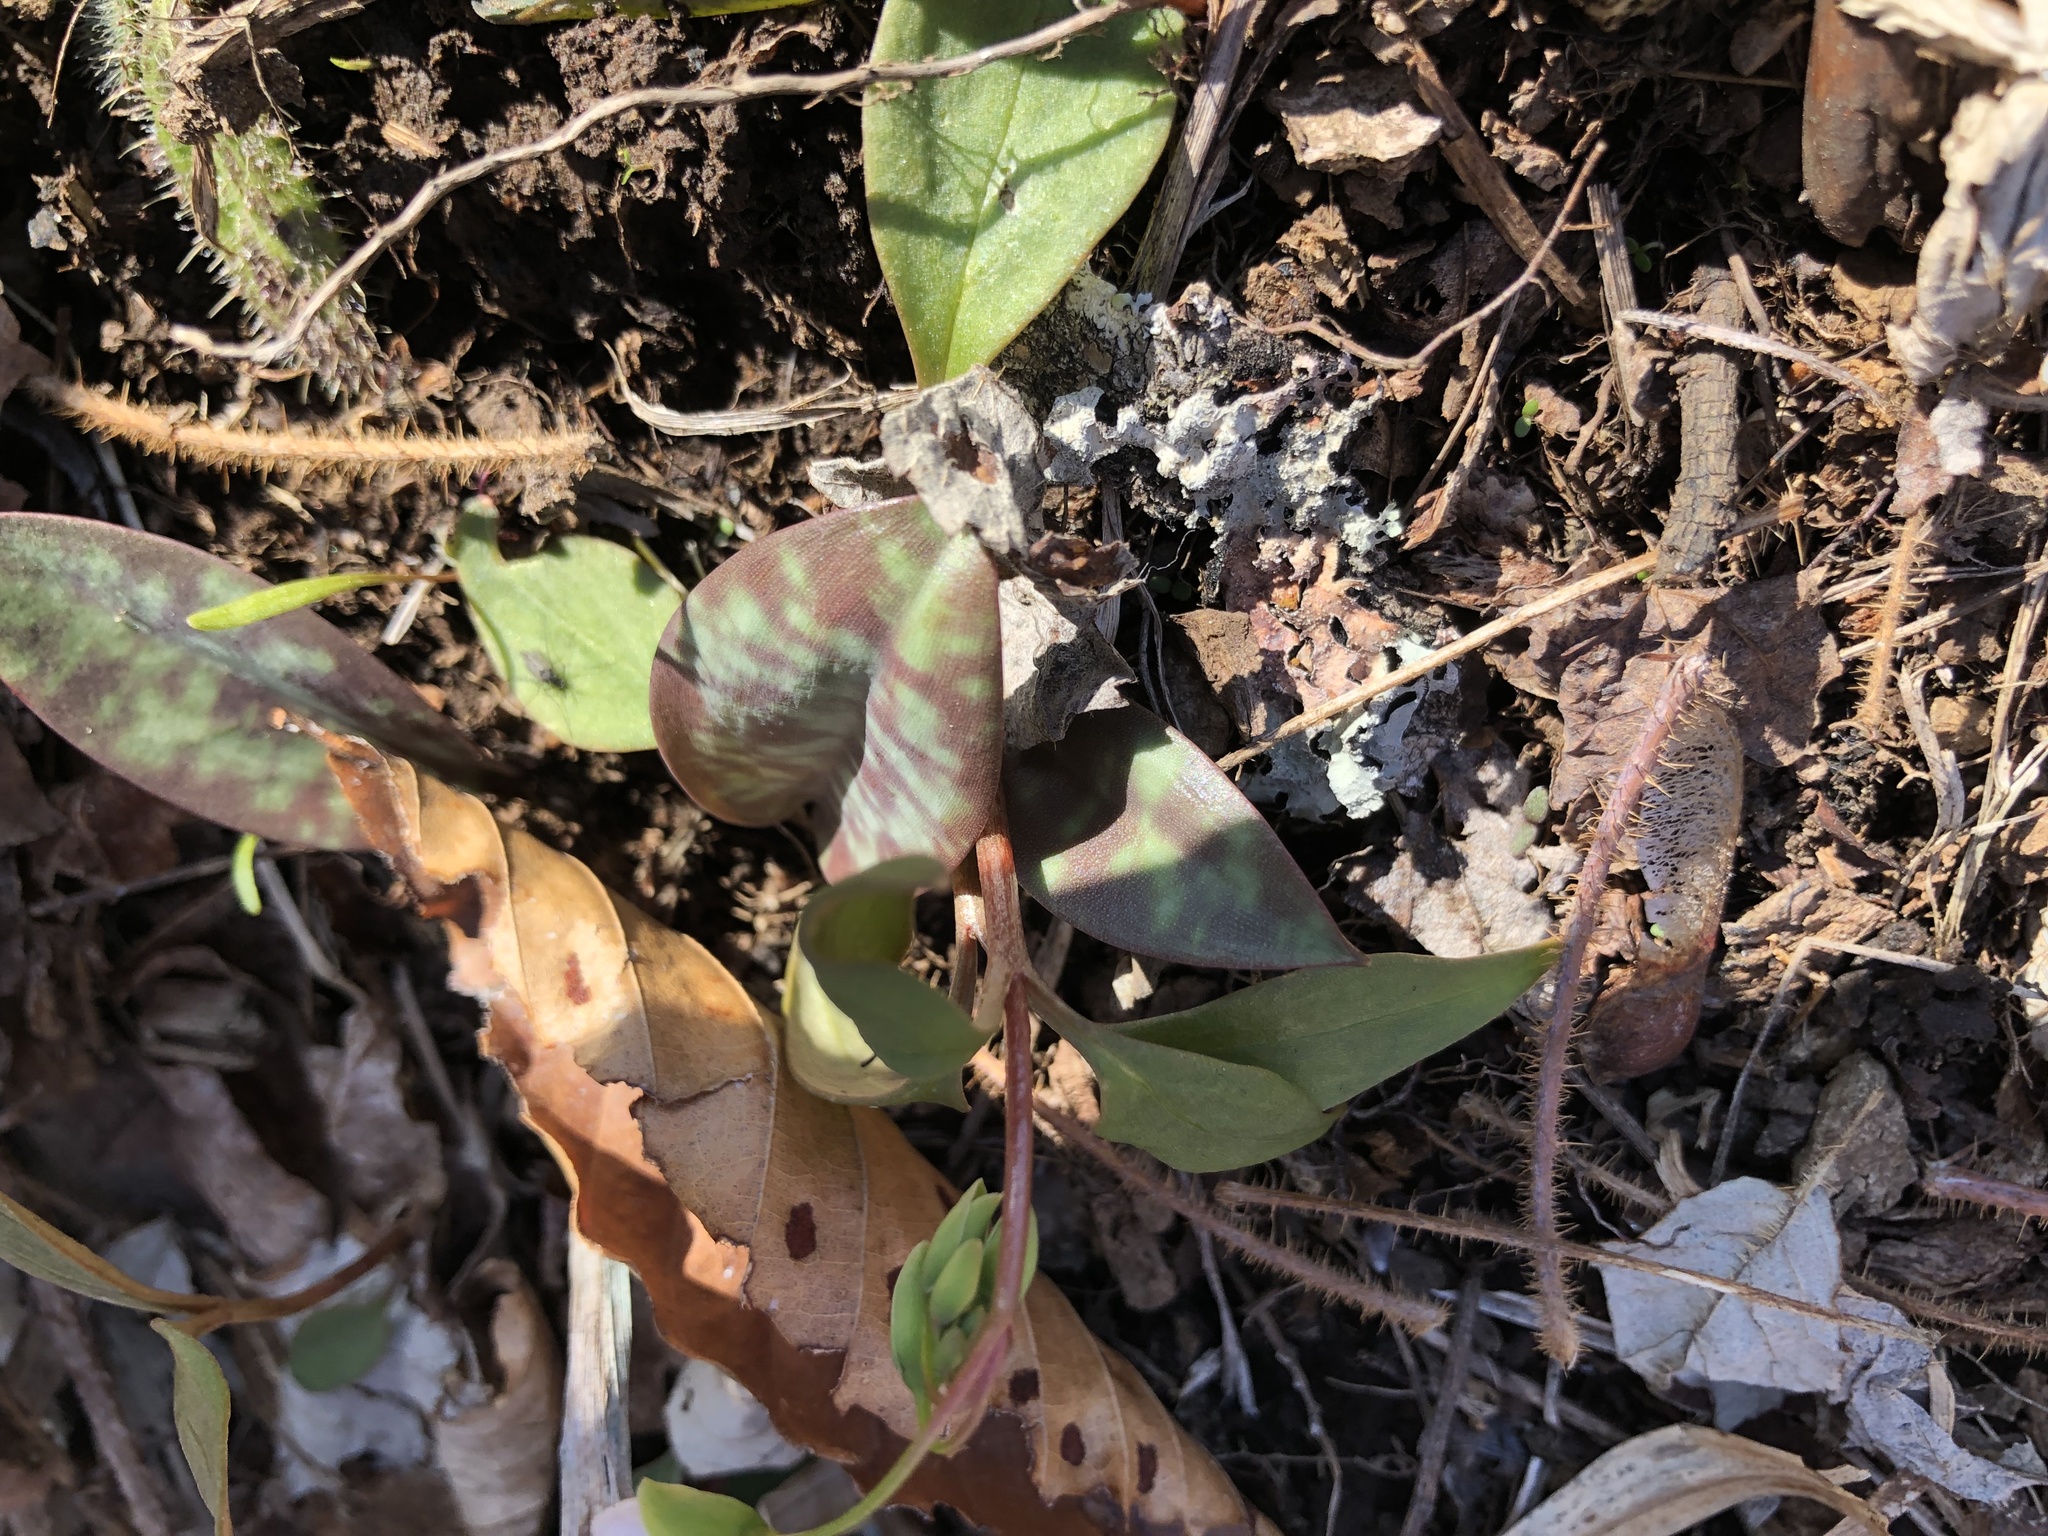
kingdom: Plantae
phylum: Tracheophyta
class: Liliopsida
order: Liliales
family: Liliaceae
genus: Erythronium
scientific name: Erythronium americanum
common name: Yellow adder's-tongue
